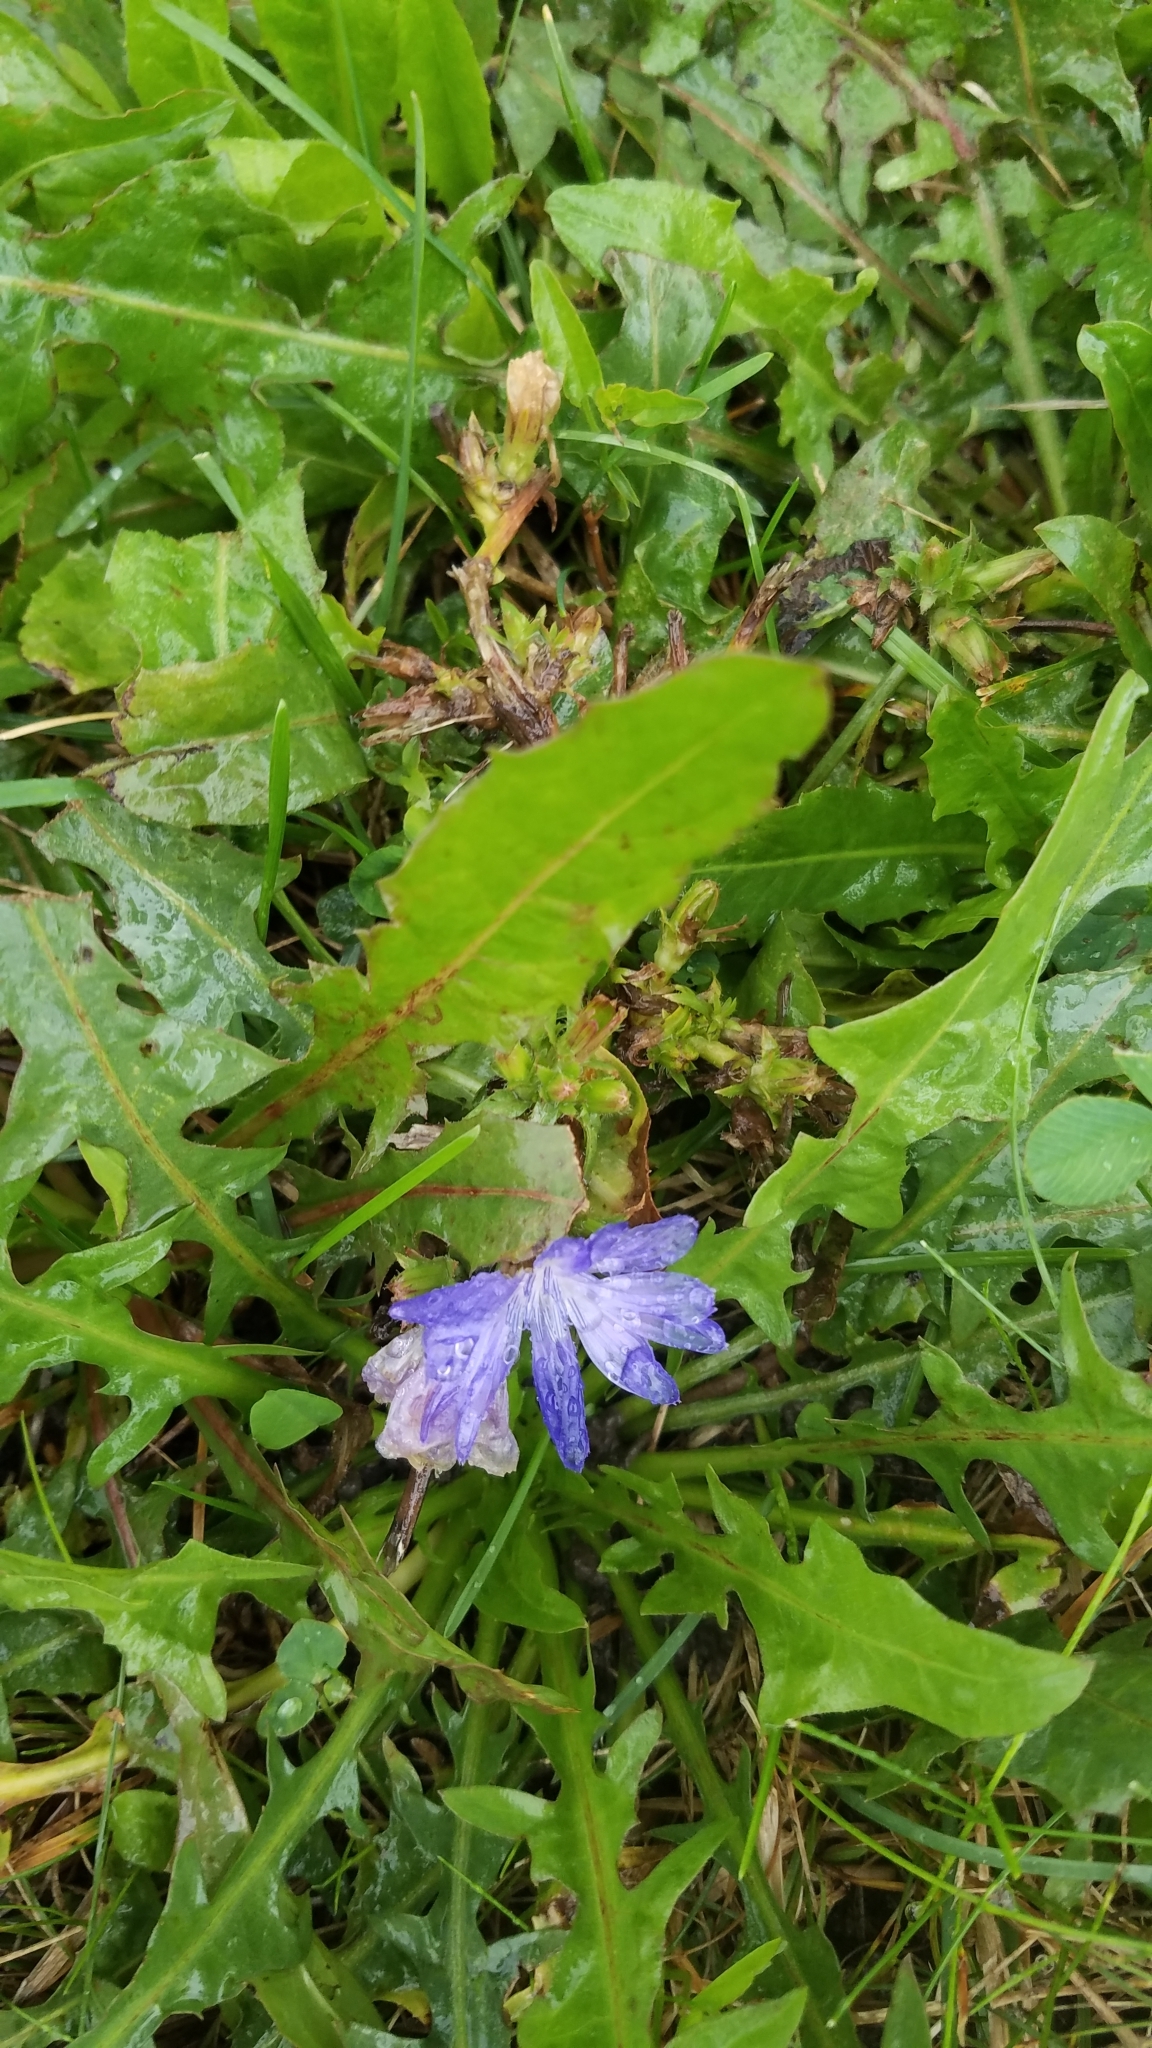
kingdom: Plantae
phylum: Tracheophyta
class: Magnoliopsida
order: Asterales
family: Asteraceae
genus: Cichorium
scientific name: Cichorium intybus
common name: Chicory
